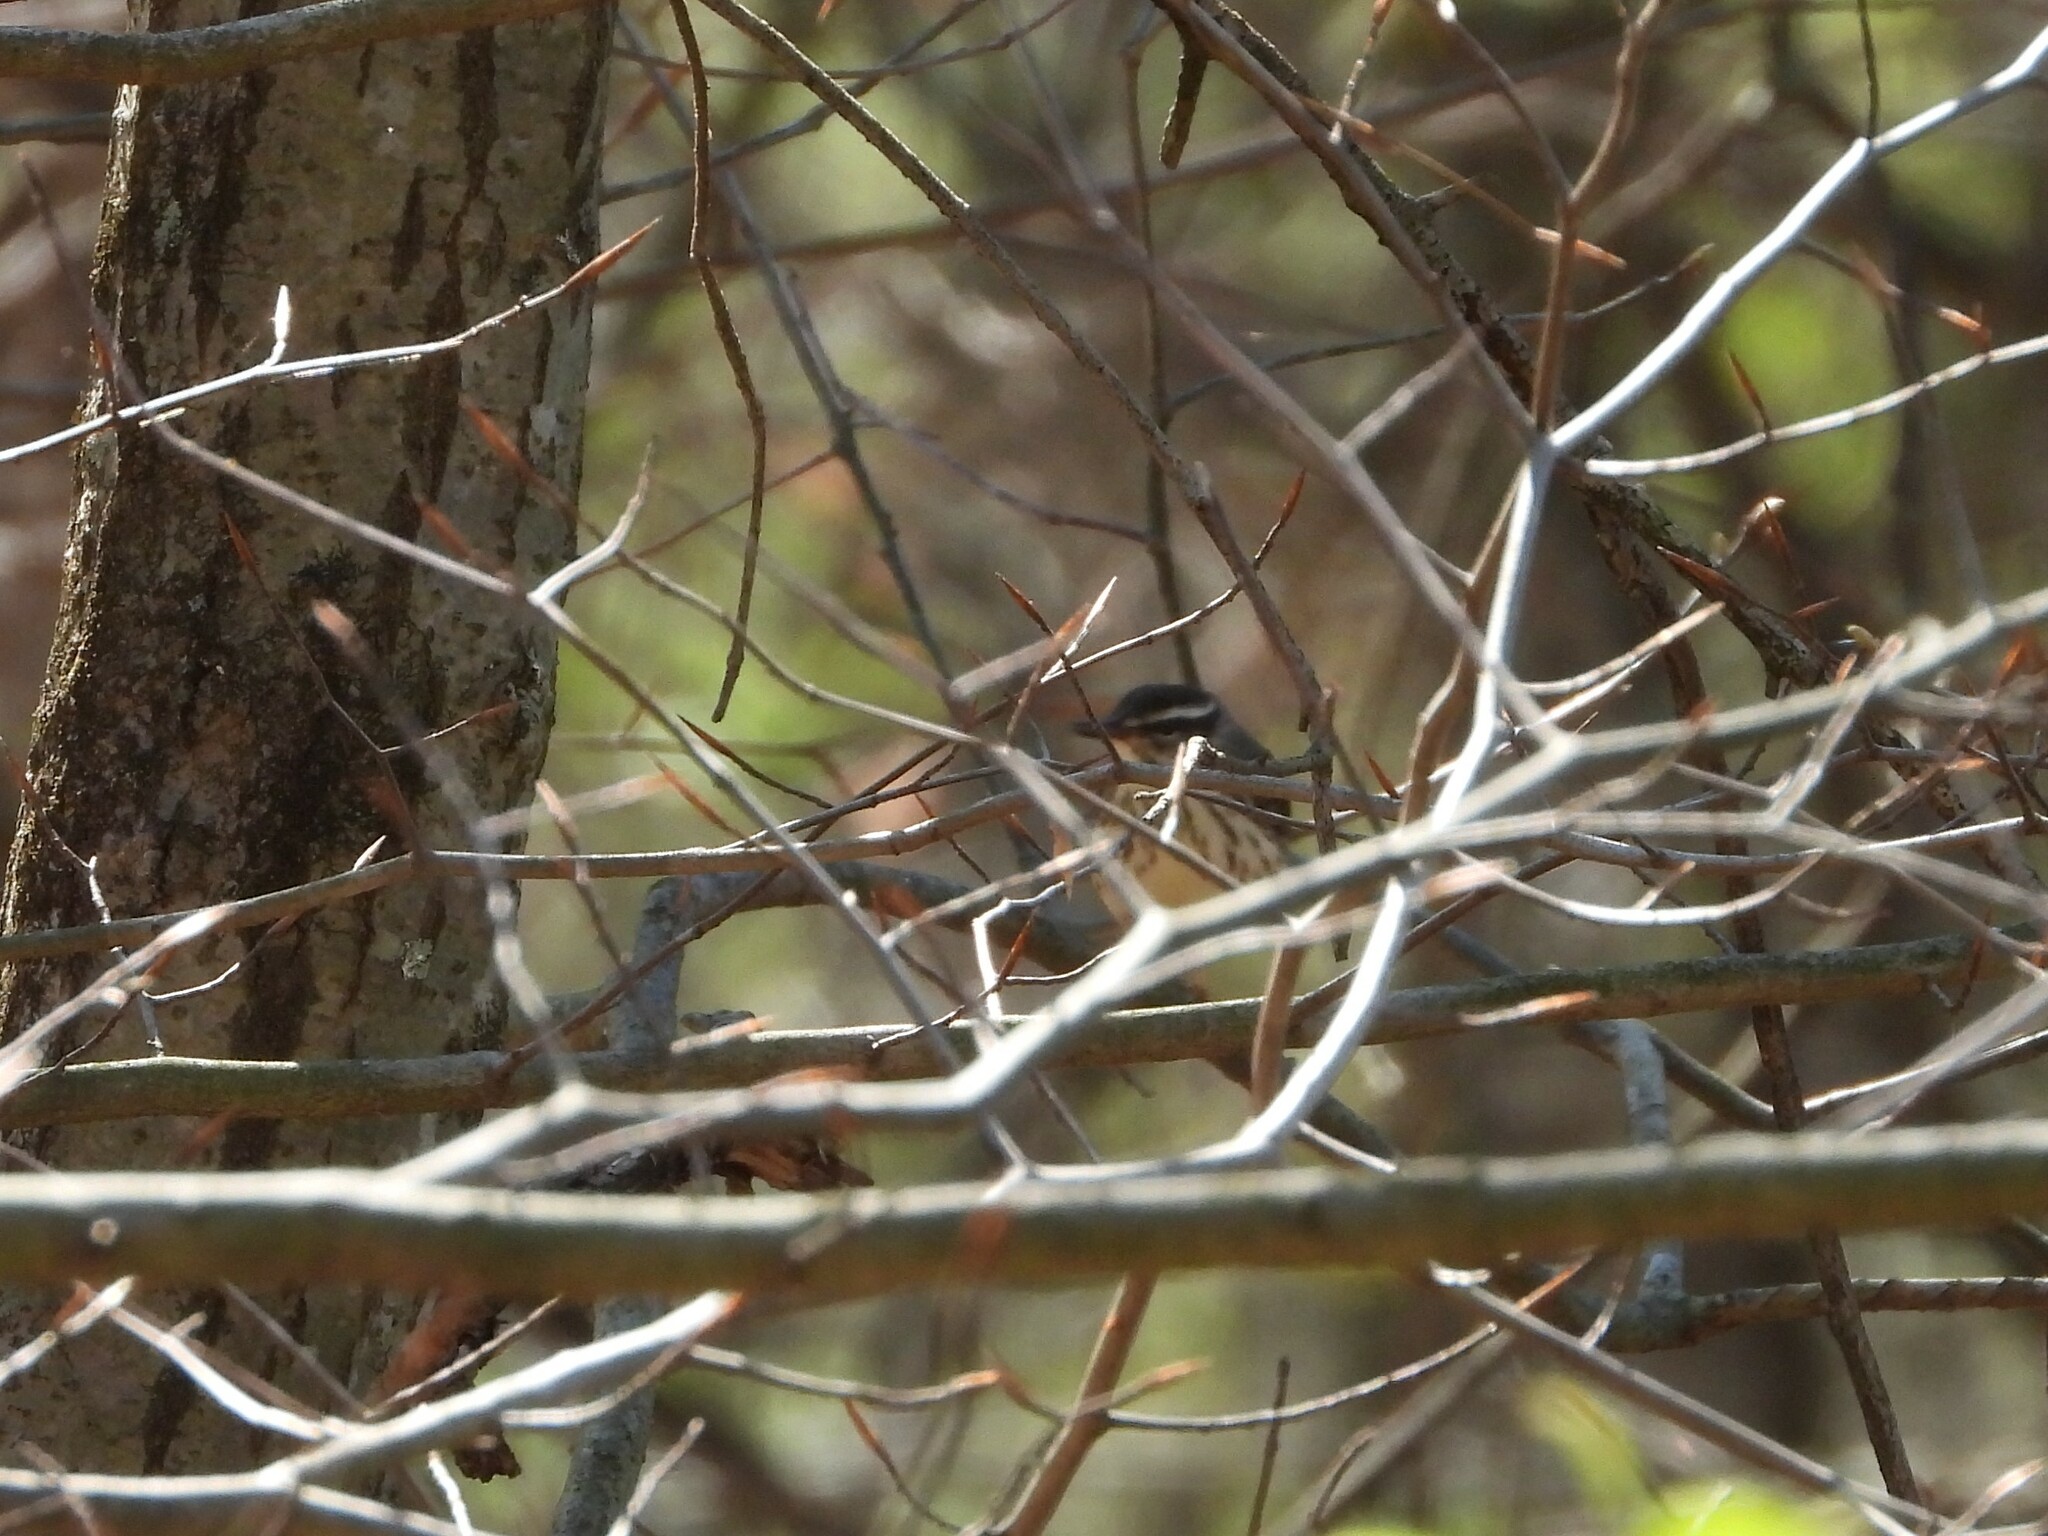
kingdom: Animalia
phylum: Chordata
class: Aves
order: Passeriformes
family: Parulidae
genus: Parkesia
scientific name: Parkesia motacilla
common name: Louisiana waterthrush
